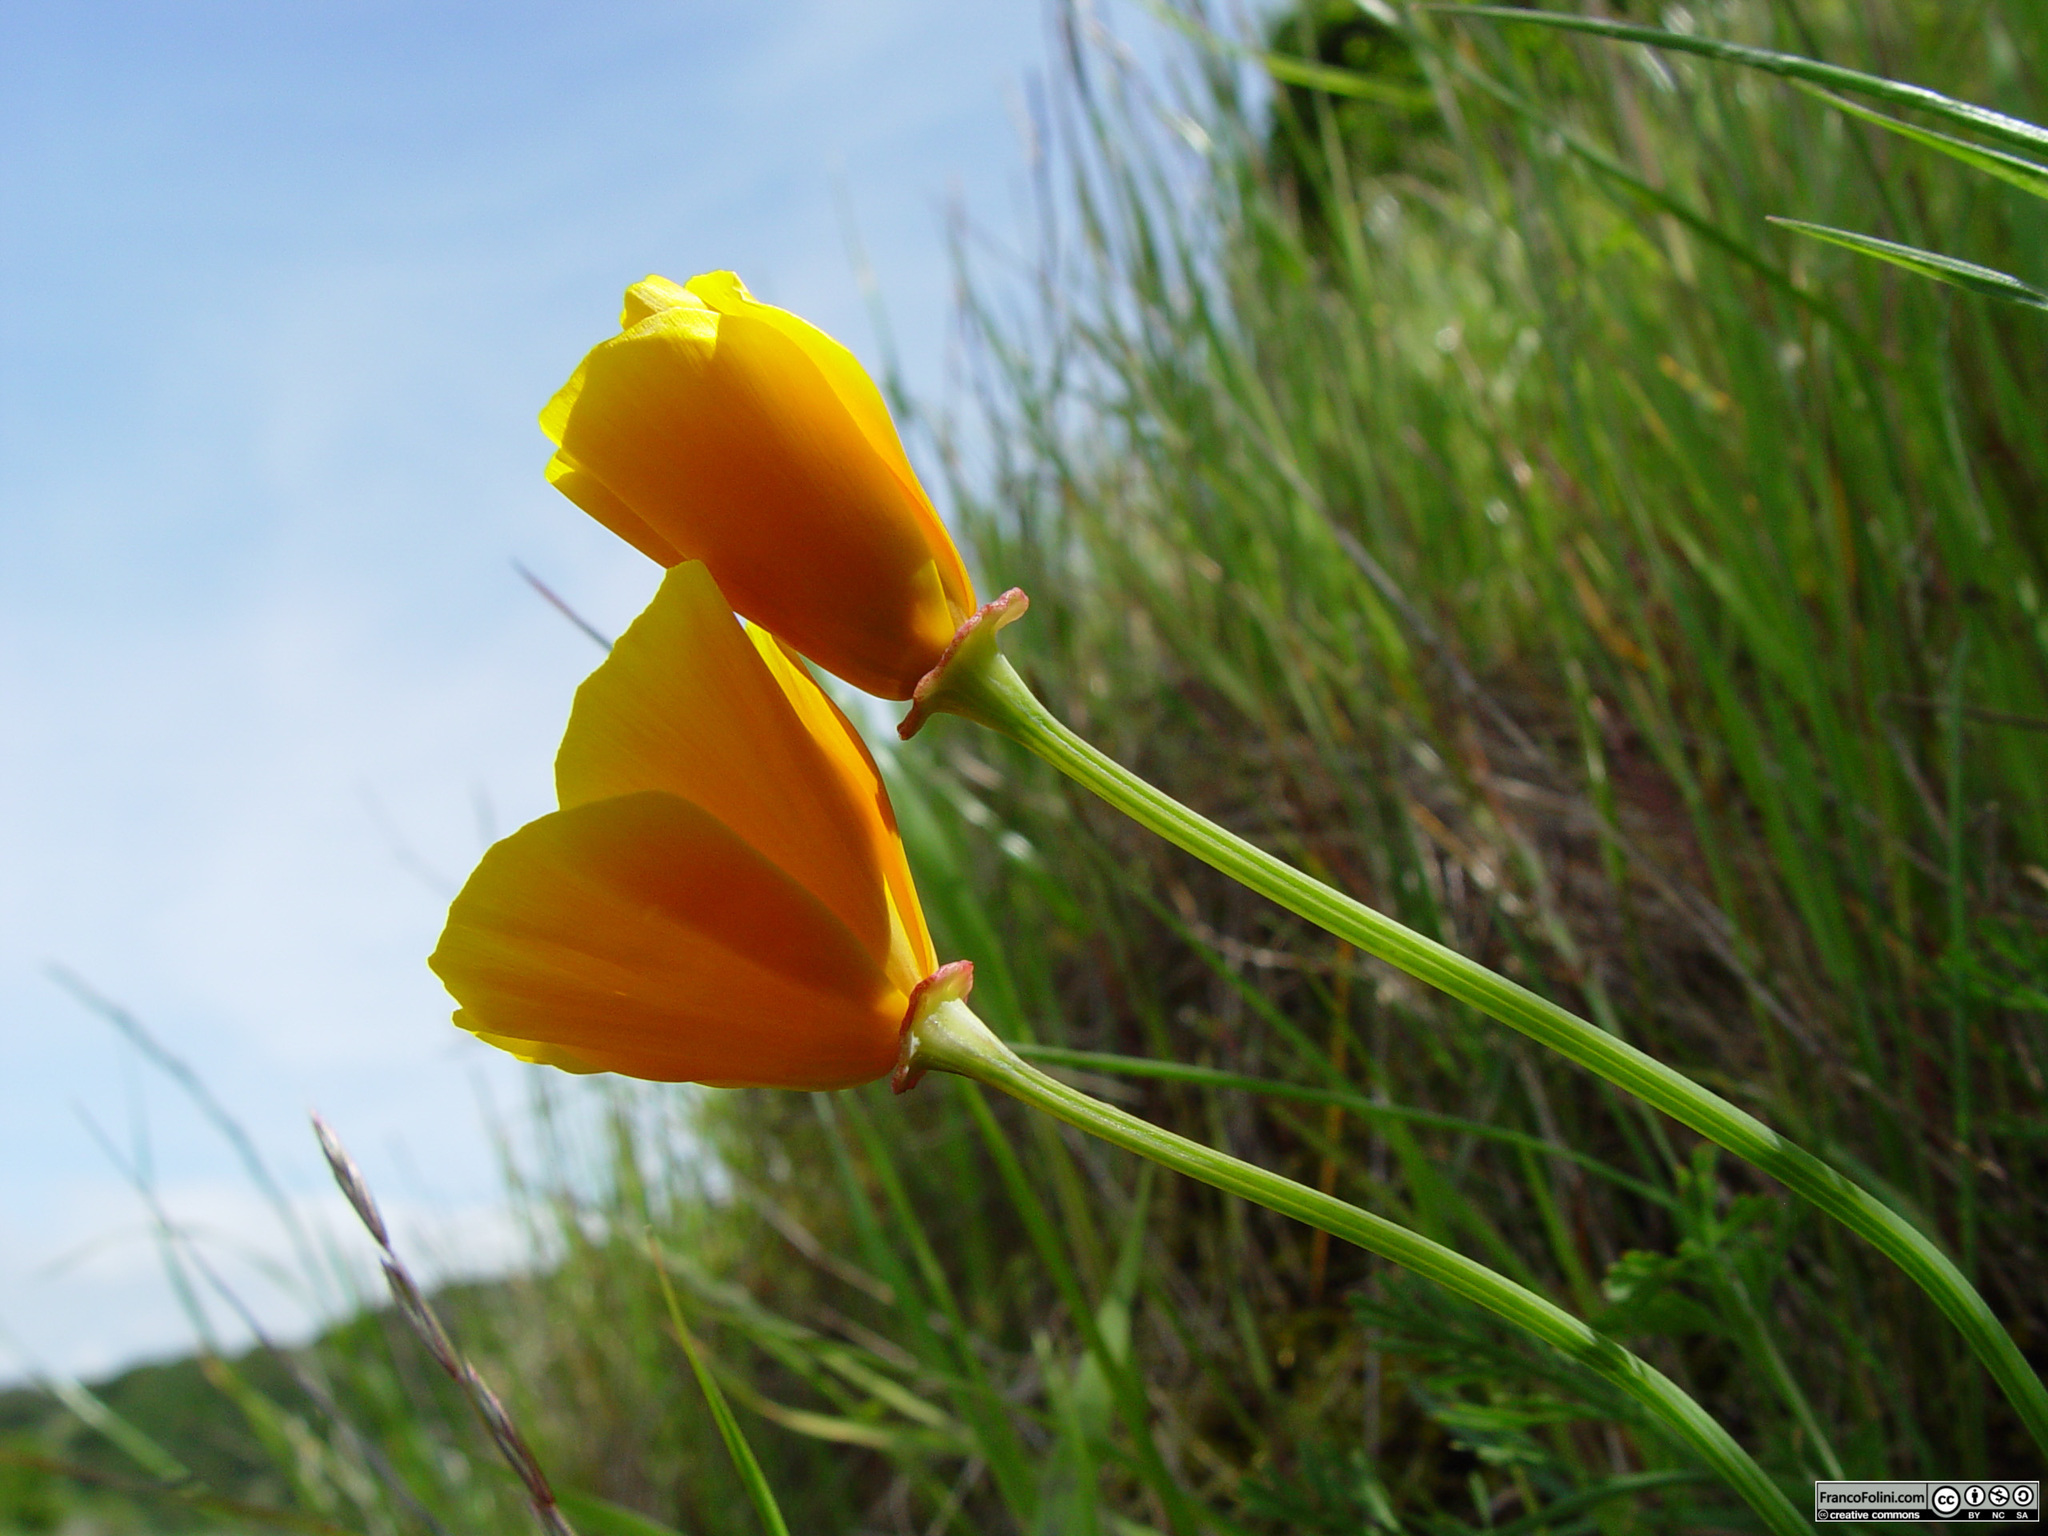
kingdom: Plantae
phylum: Tracheophyta
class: Magnoliopsida
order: Ranunculales
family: Papaveraceae
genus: Eschscholzia
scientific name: Eschscholzia californica
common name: California poppy
